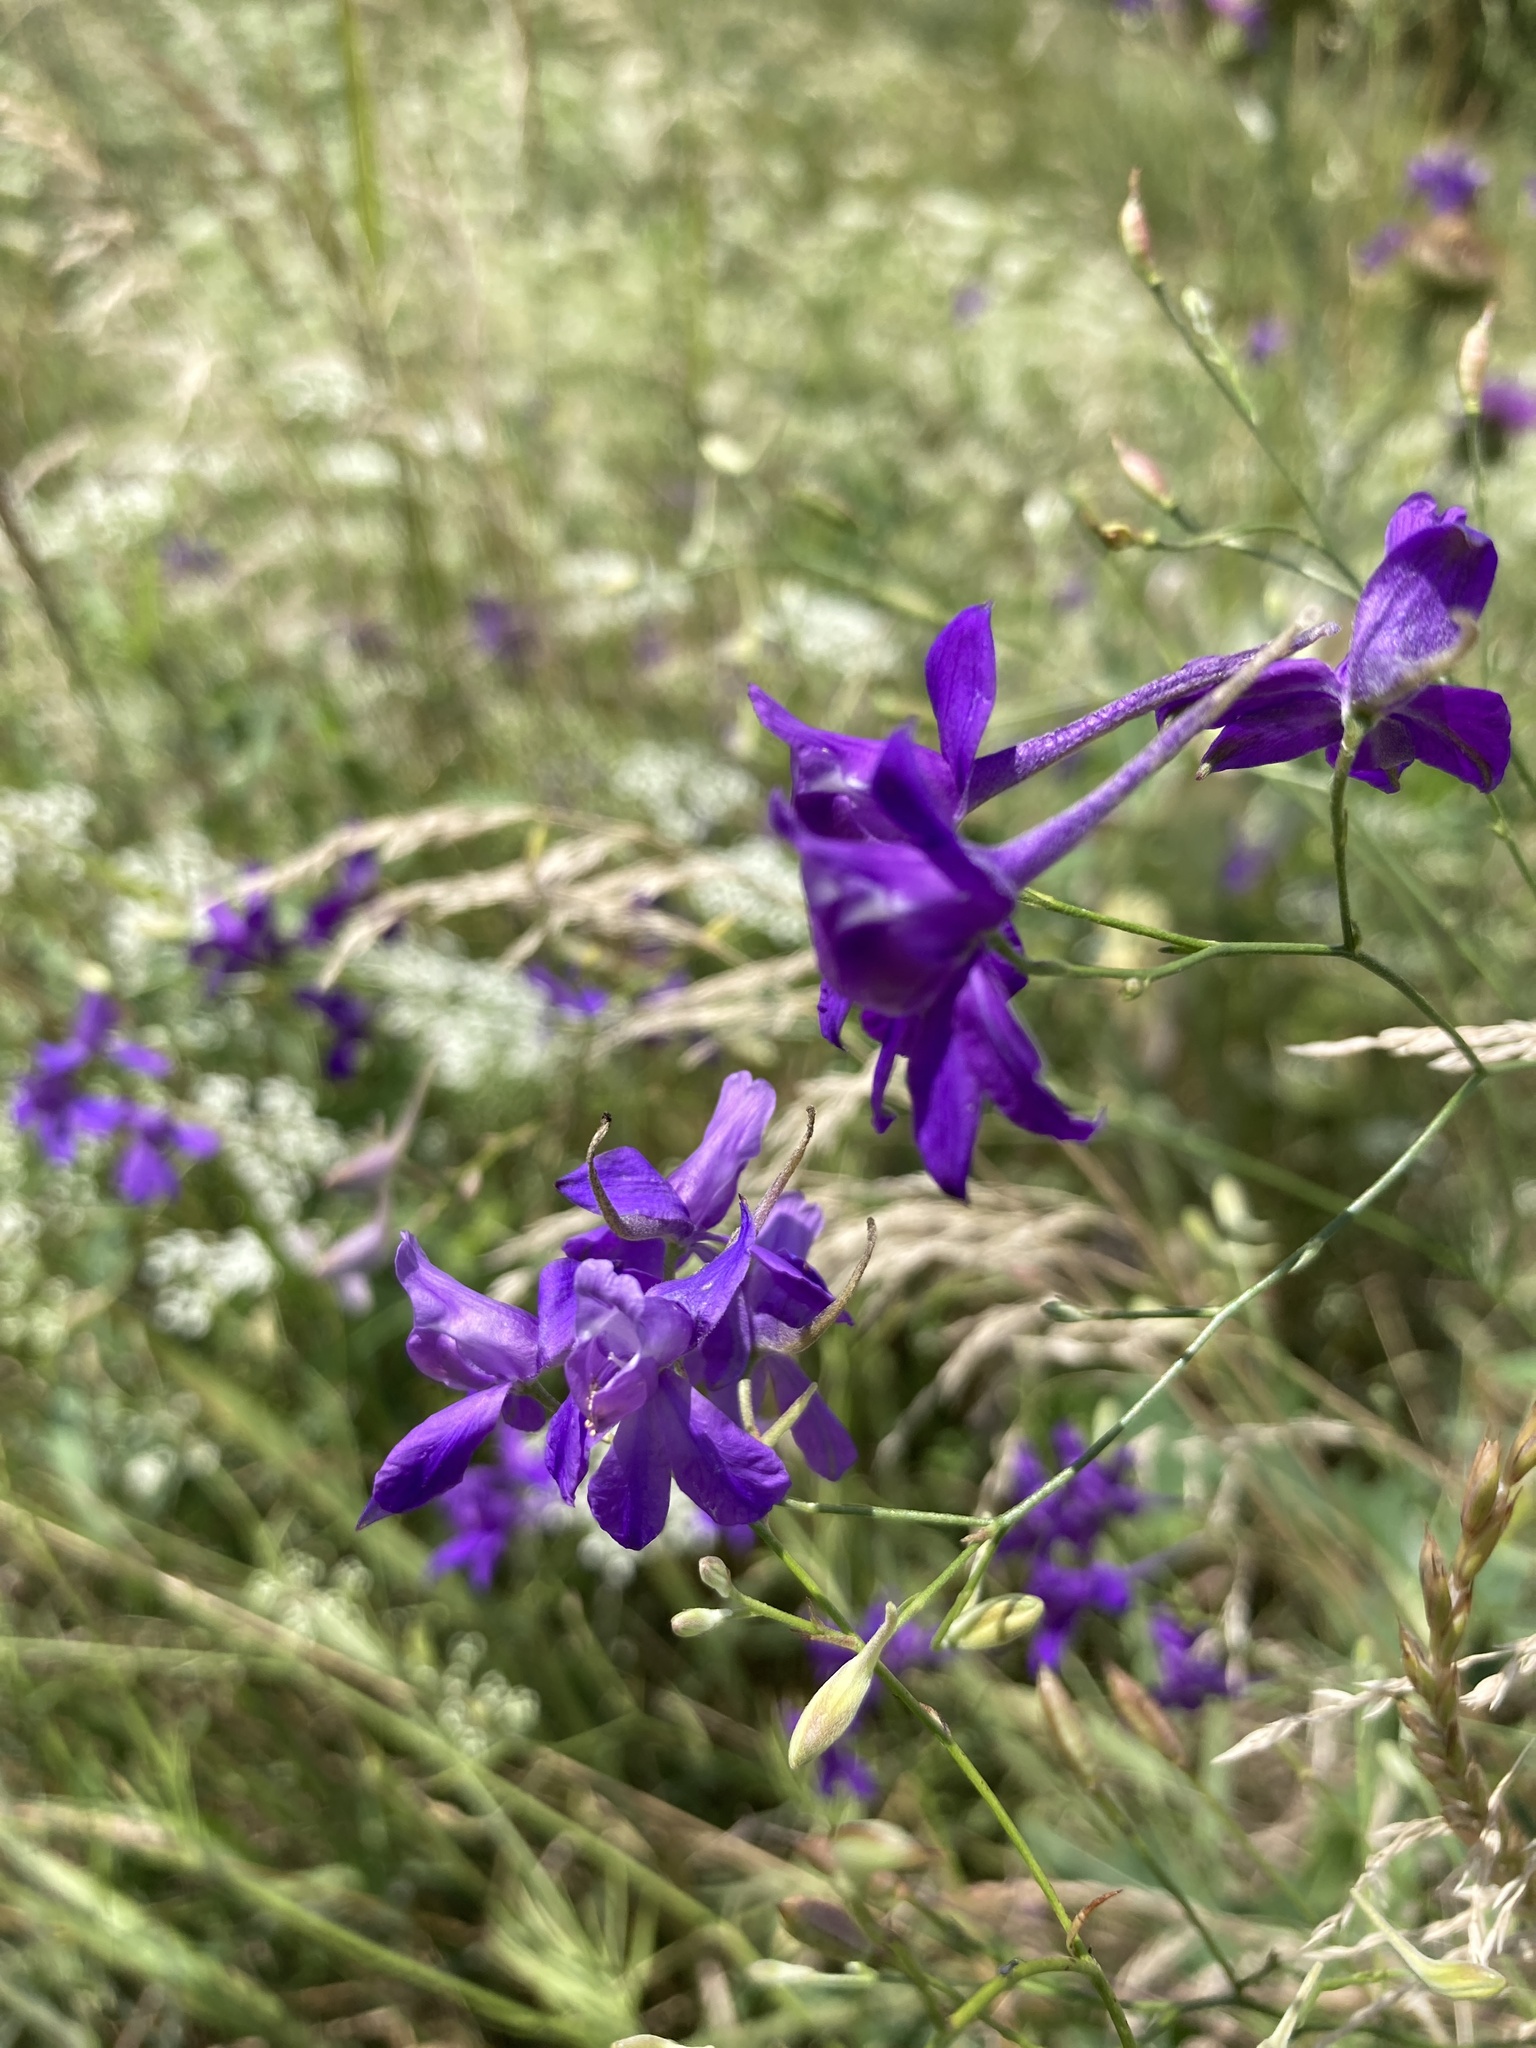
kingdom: Plantae
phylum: Tracheophyta
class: Magnoliopsida
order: Ranunculales
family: Ranunculaceae
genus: Delphinium
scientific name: Delphinium consolida
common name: Branching larkspur
